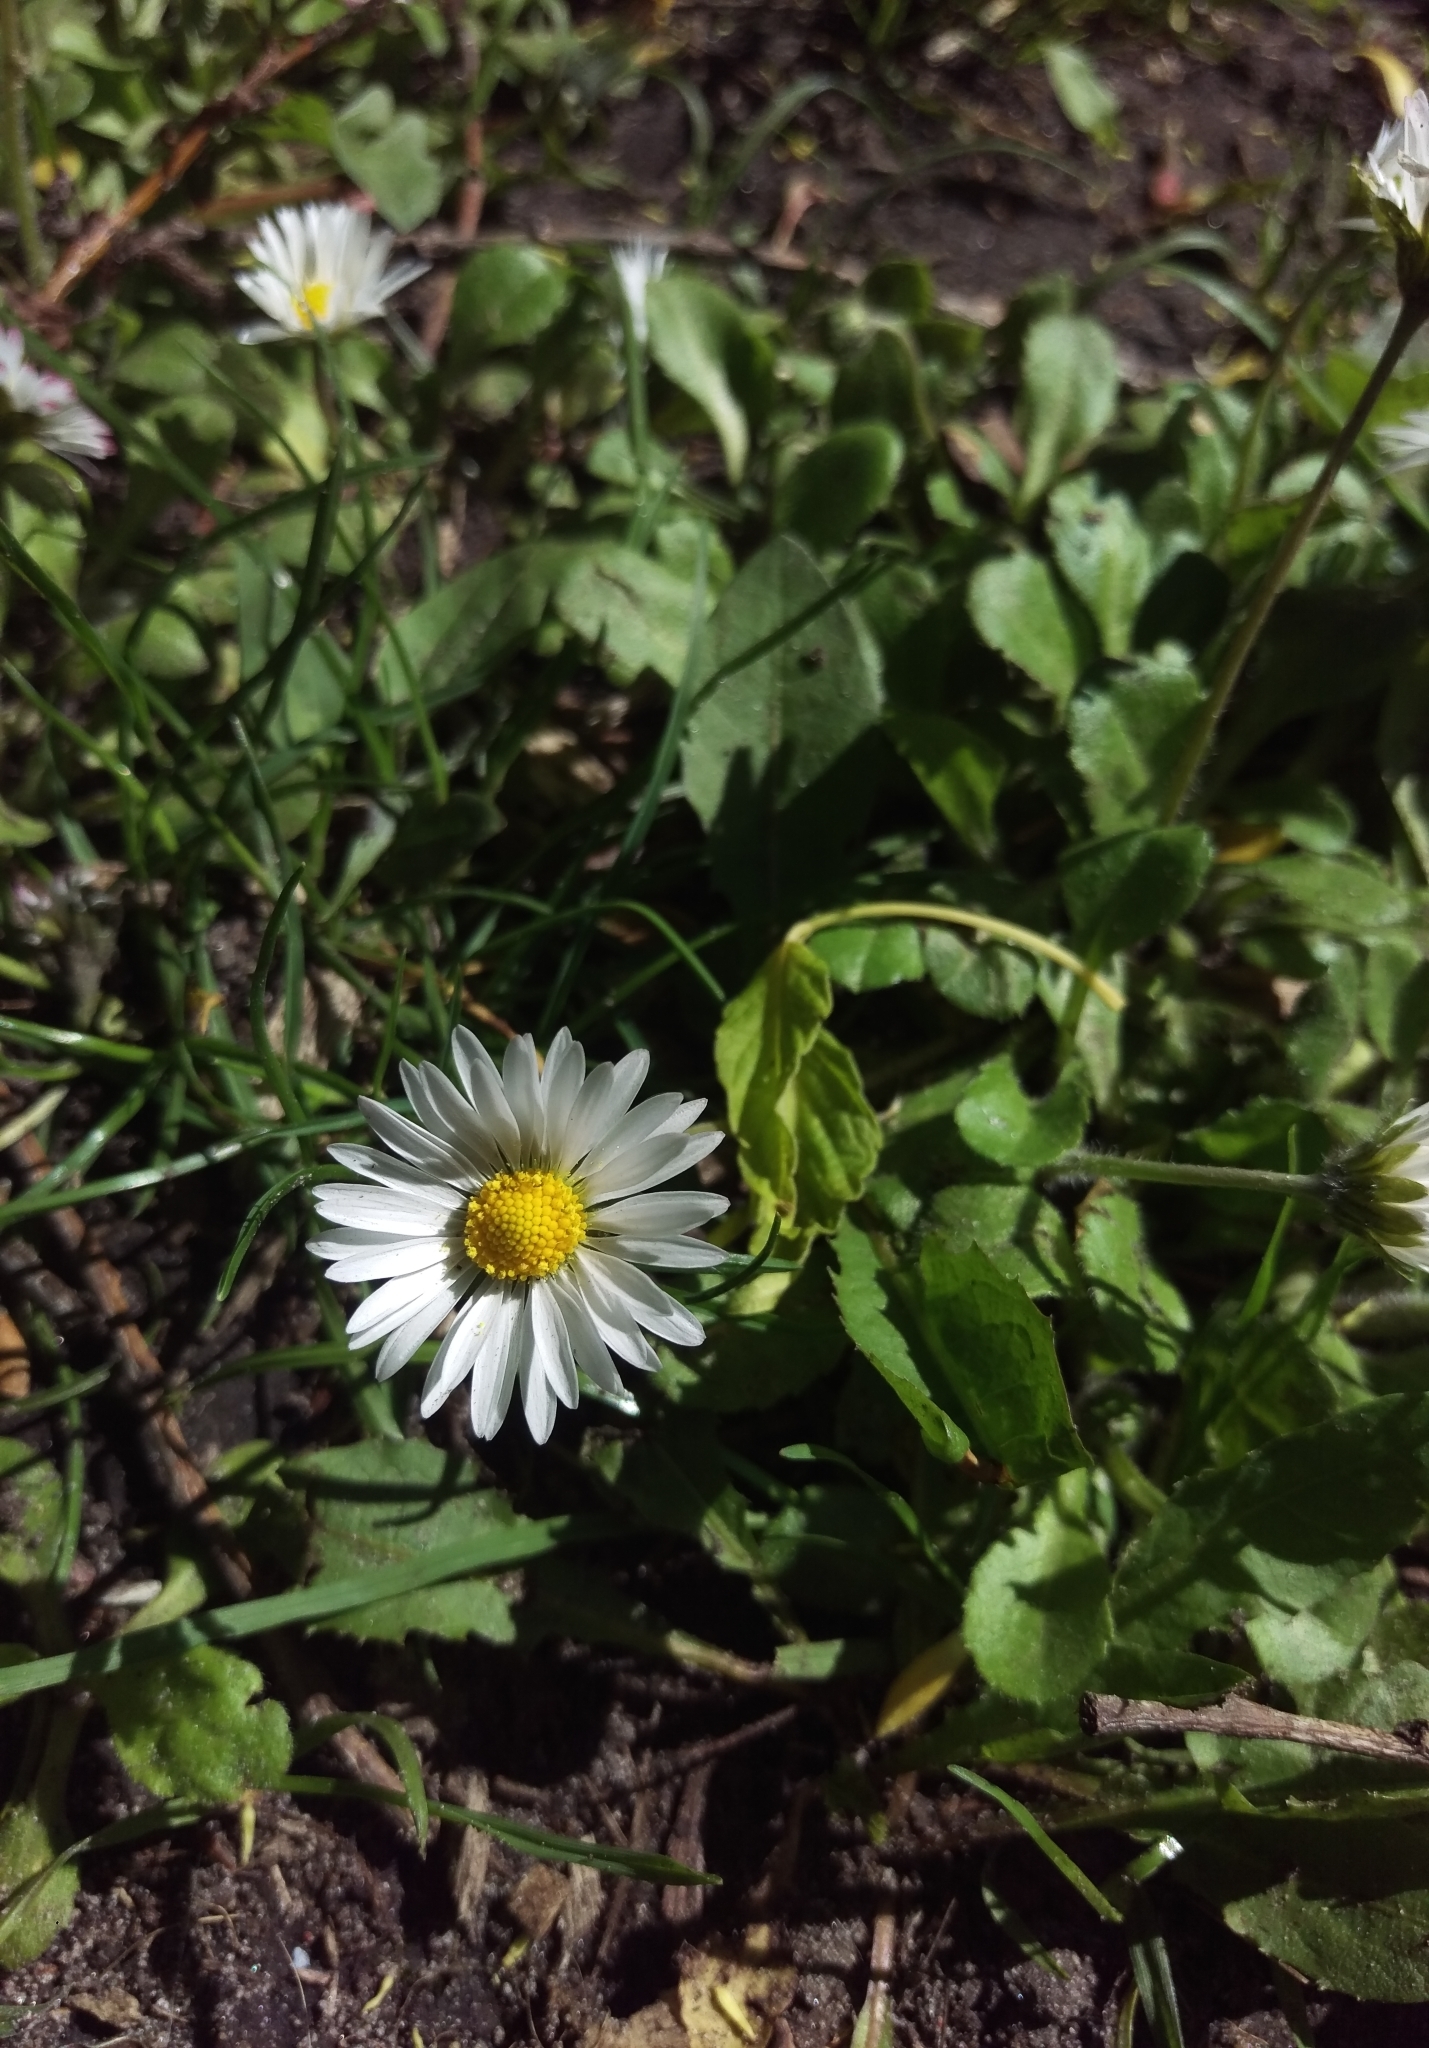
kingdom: Plantae
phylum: Tracheophyta
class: Magnoliopsida
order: Asterales
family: Asteraceae
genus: Bellis
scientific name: Bellis perennis
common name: Lawndaisy
